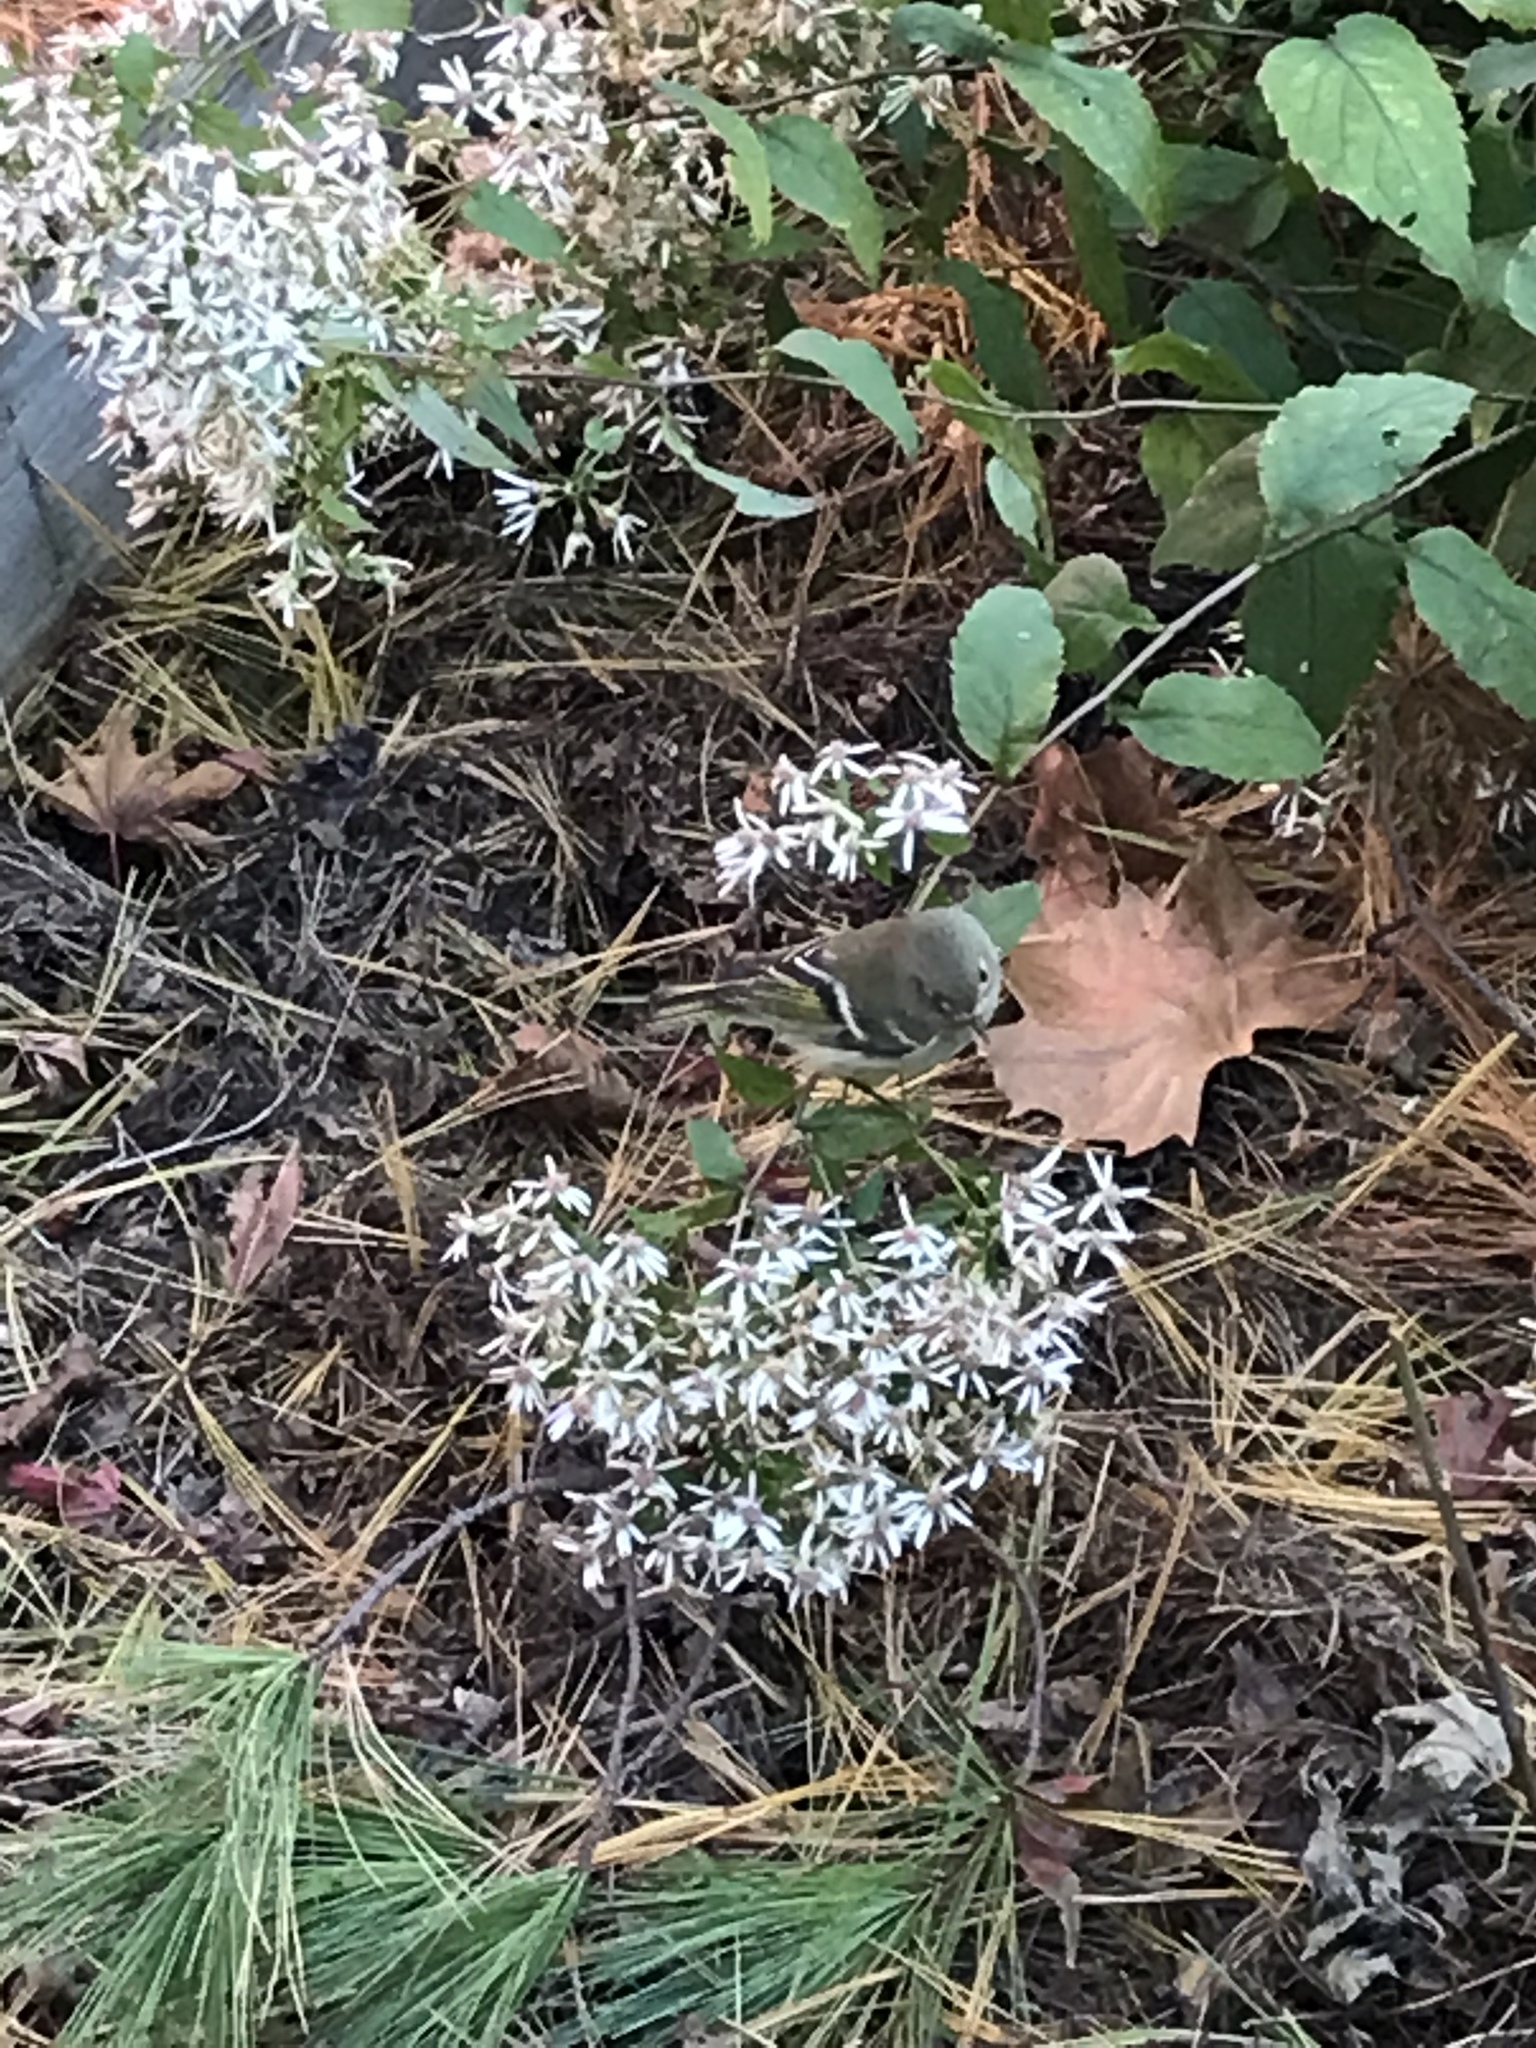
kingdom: Animalia
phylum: Chordata
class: Aves
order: Passeriformes
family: Regulidae
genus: Regulus
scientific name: Regulus calendula
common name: Ruby-crowned kinglet
